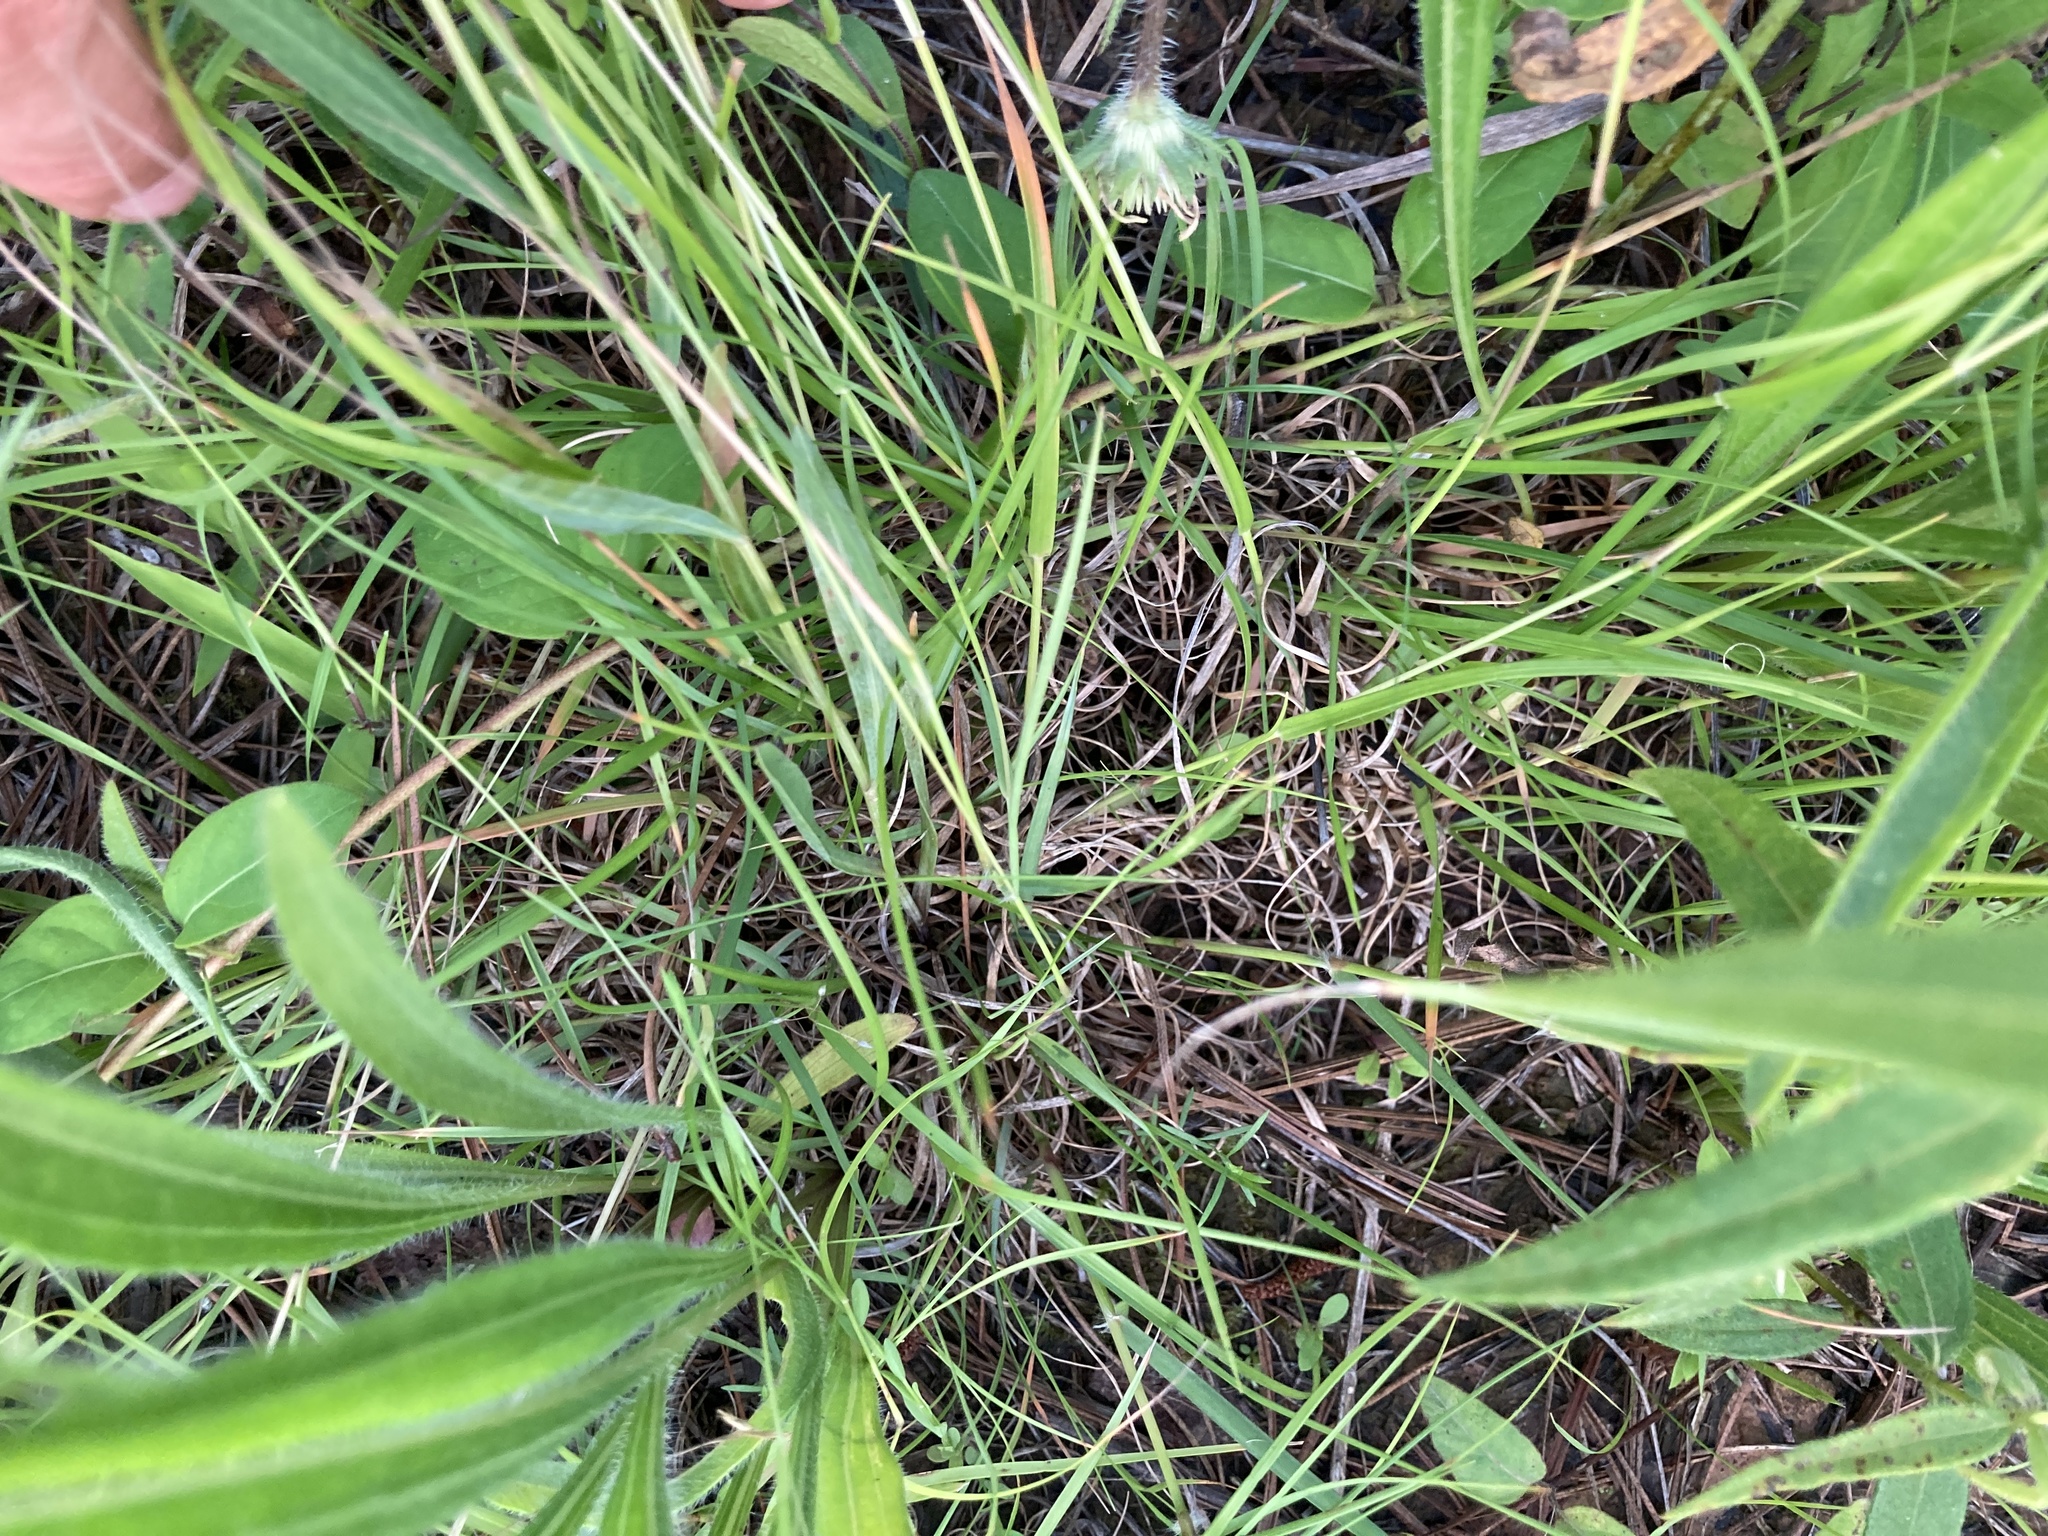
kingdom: Plantae
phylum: Tracheophyta
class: Liliopsida
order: Poales
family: Poaceae
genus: Danthonia
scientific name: Danthonia spicata
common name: Common wild oatgrass
